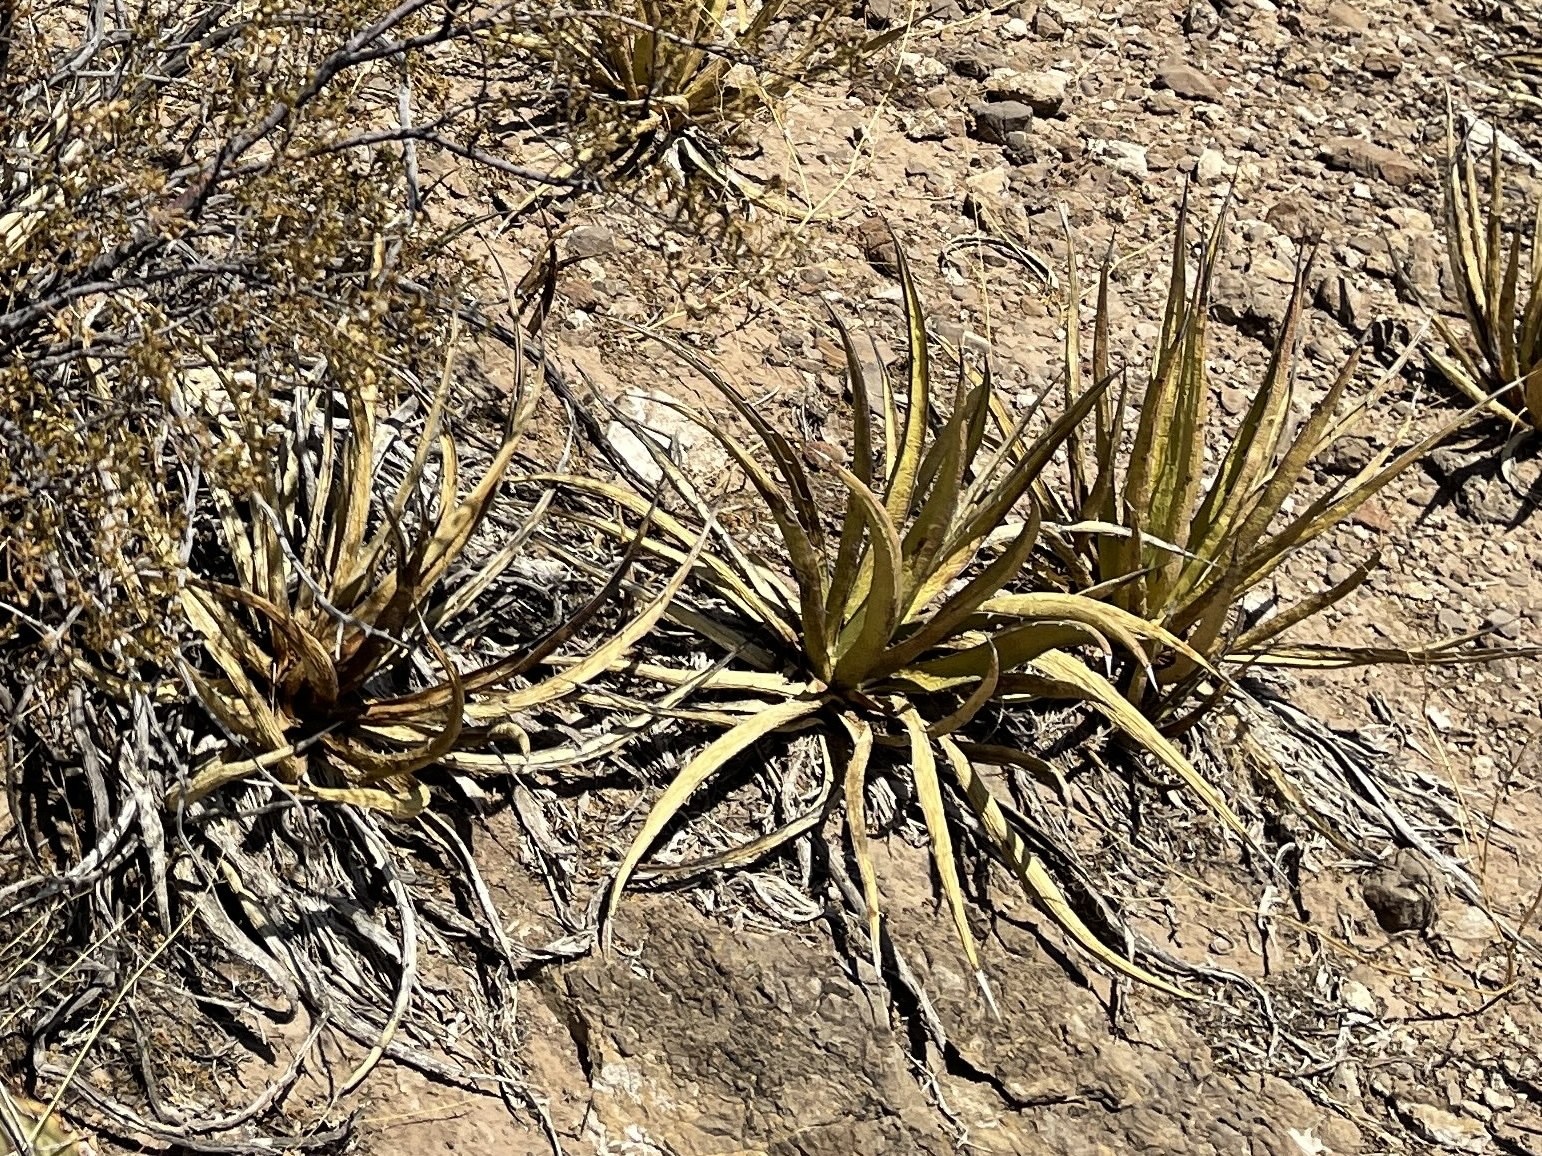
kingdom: Plantae
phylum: Tracheophyta
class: Liliopsida
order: Asparagales
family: Asparagaceae
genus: Agave
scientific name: Agave lechuguilla
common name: Lecheguilla agave
